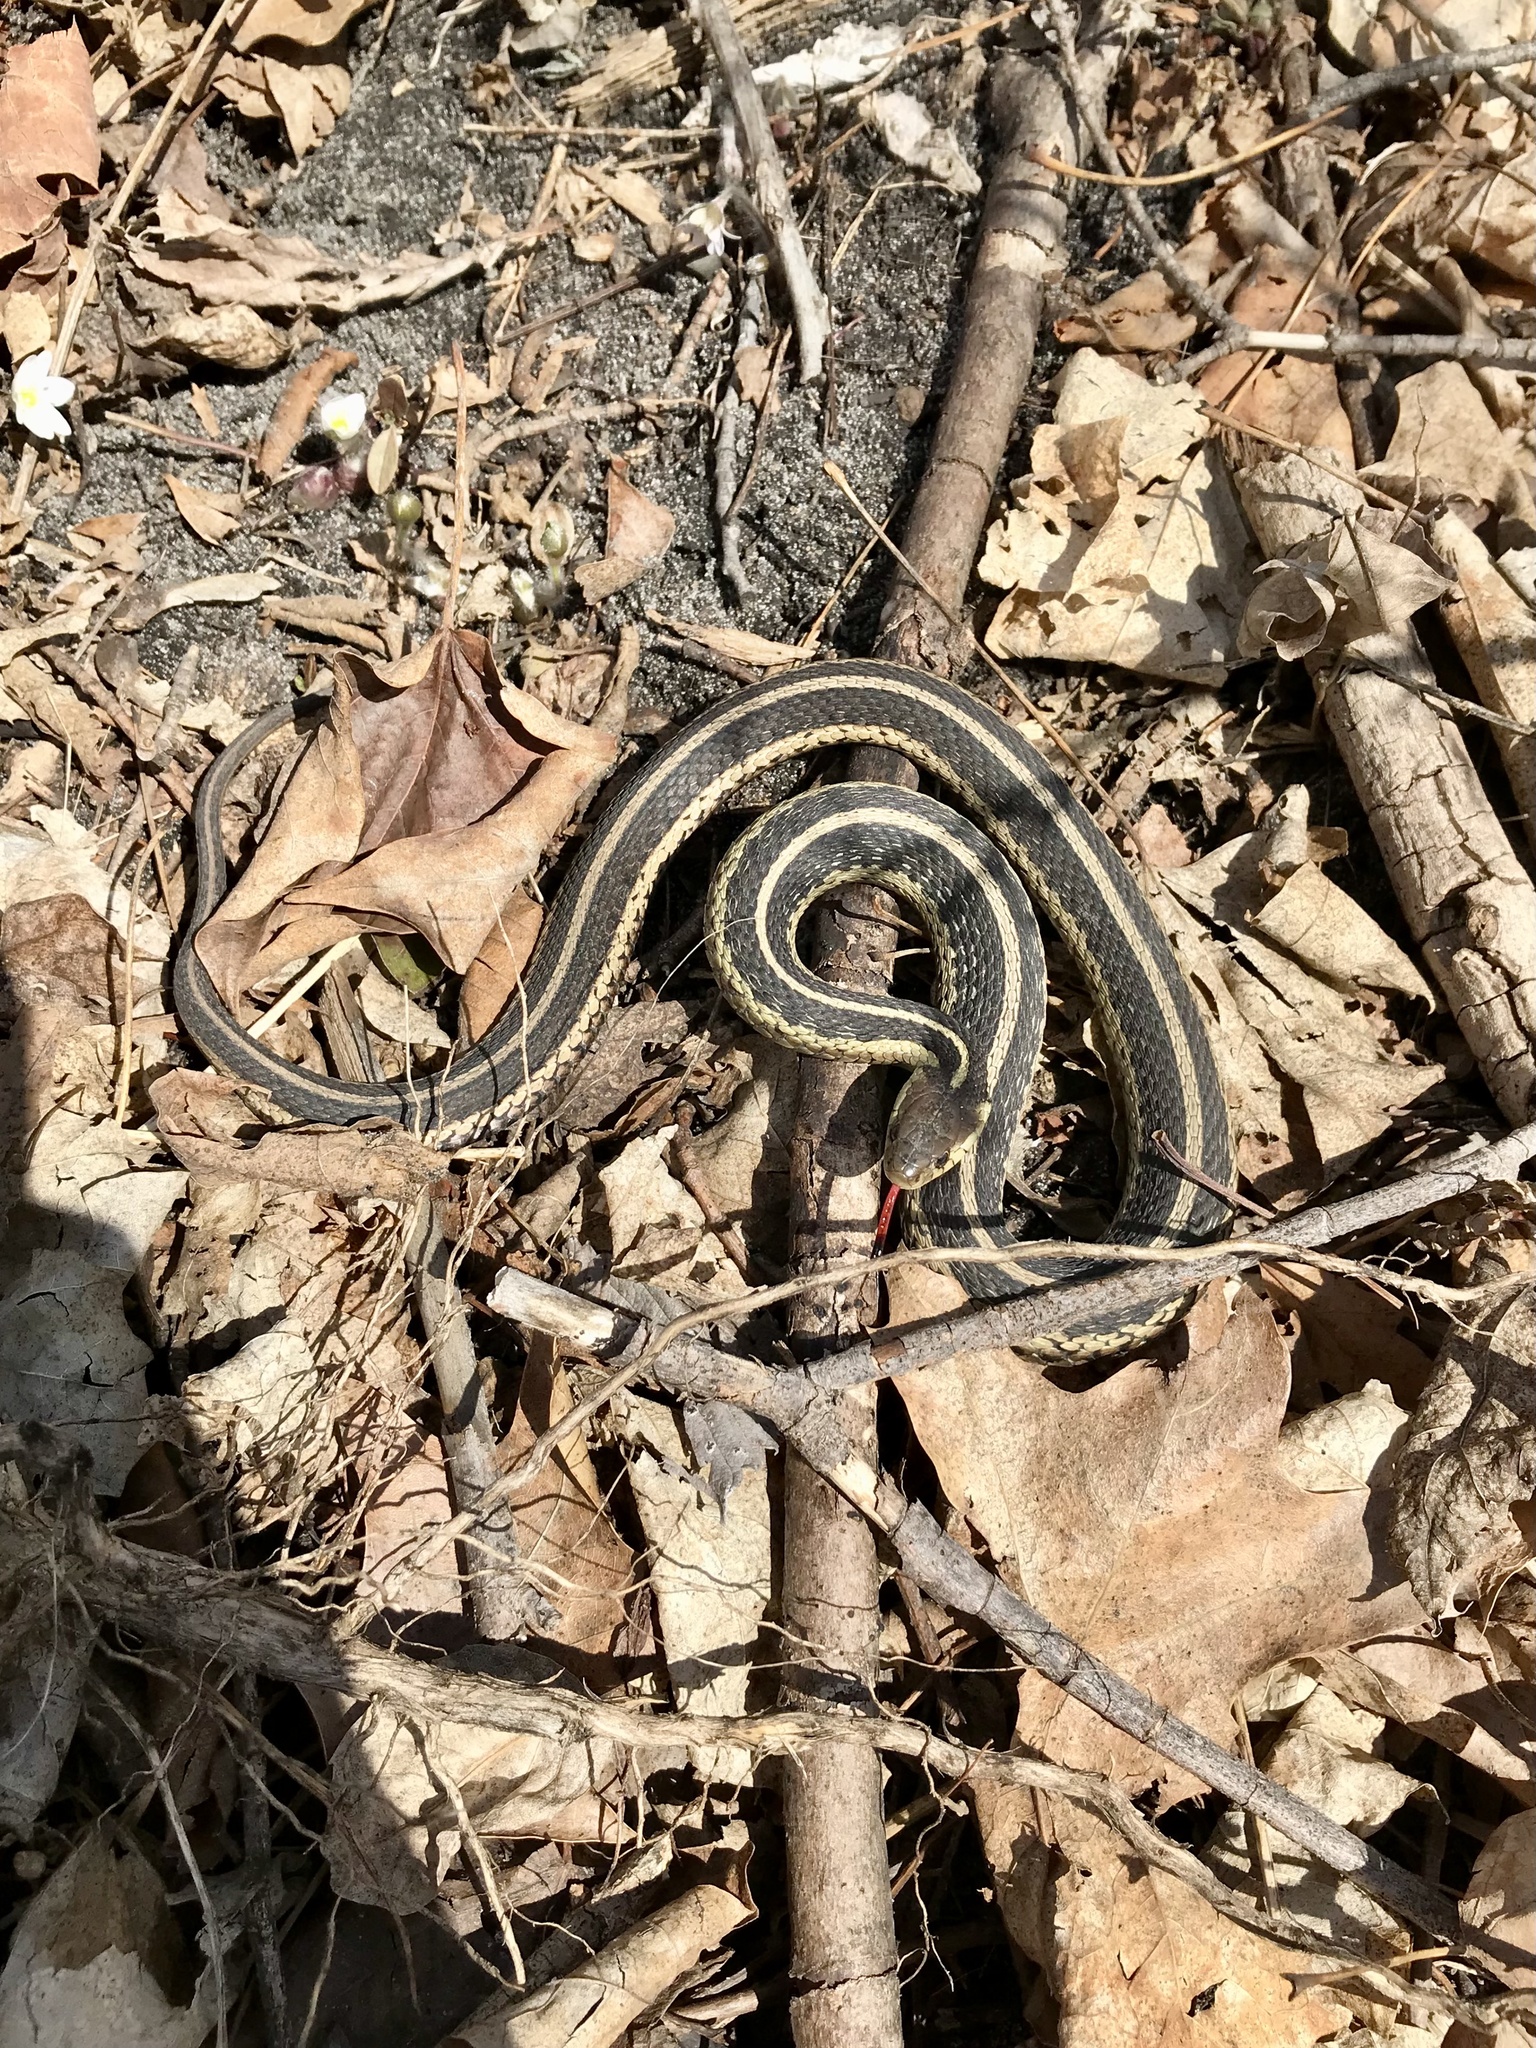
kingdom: Animalia
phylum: Chordata
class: Squamata
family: Colubridae
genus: Thamnophis
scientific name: Thamnophis sirtalis
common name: Common garter snake
